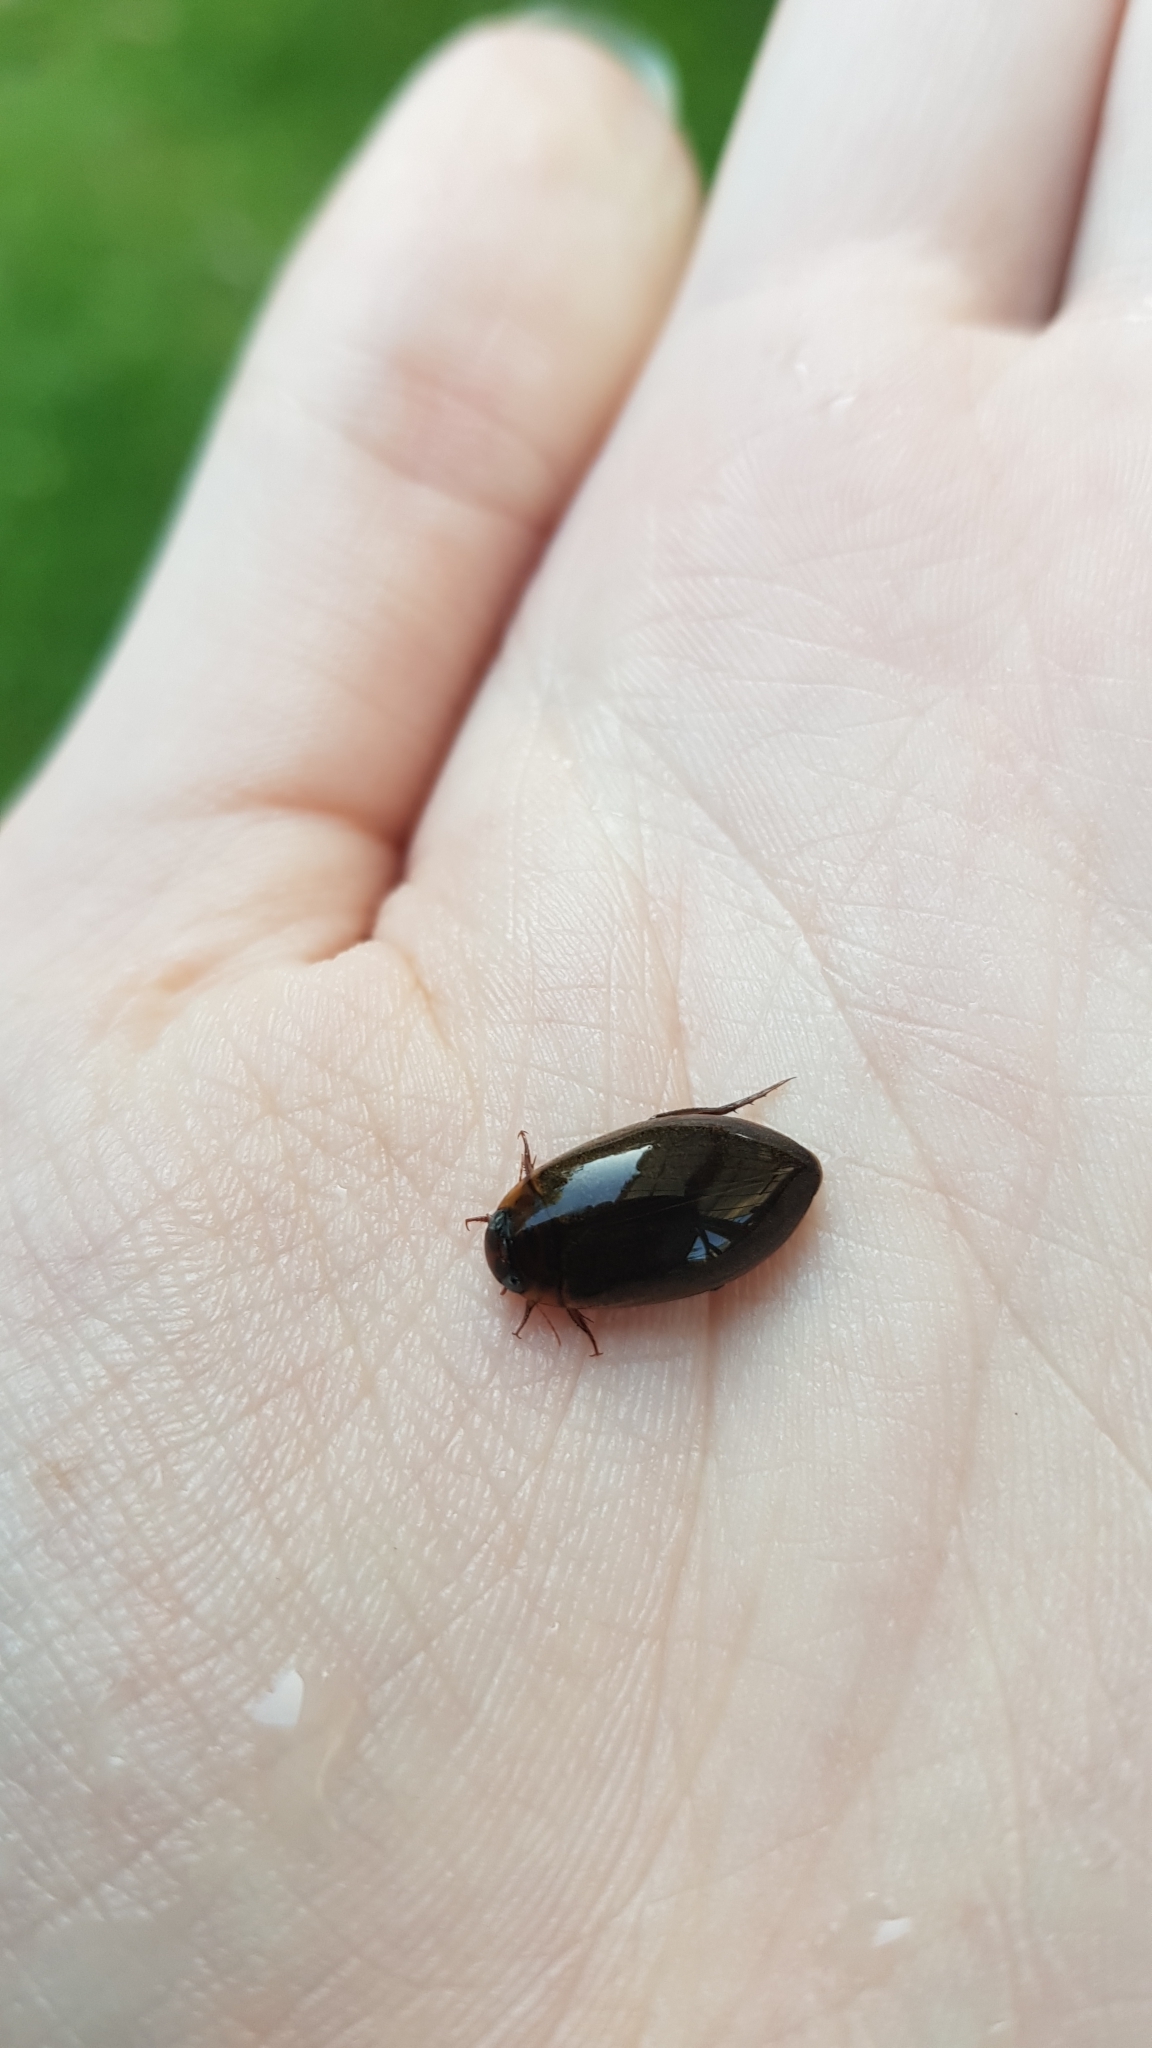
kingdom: Animalia
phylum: Arthropoda
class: Insecta
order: Coleoptera
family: Dytiscidae
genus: Rhantus
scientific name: Rhantus suturalis
